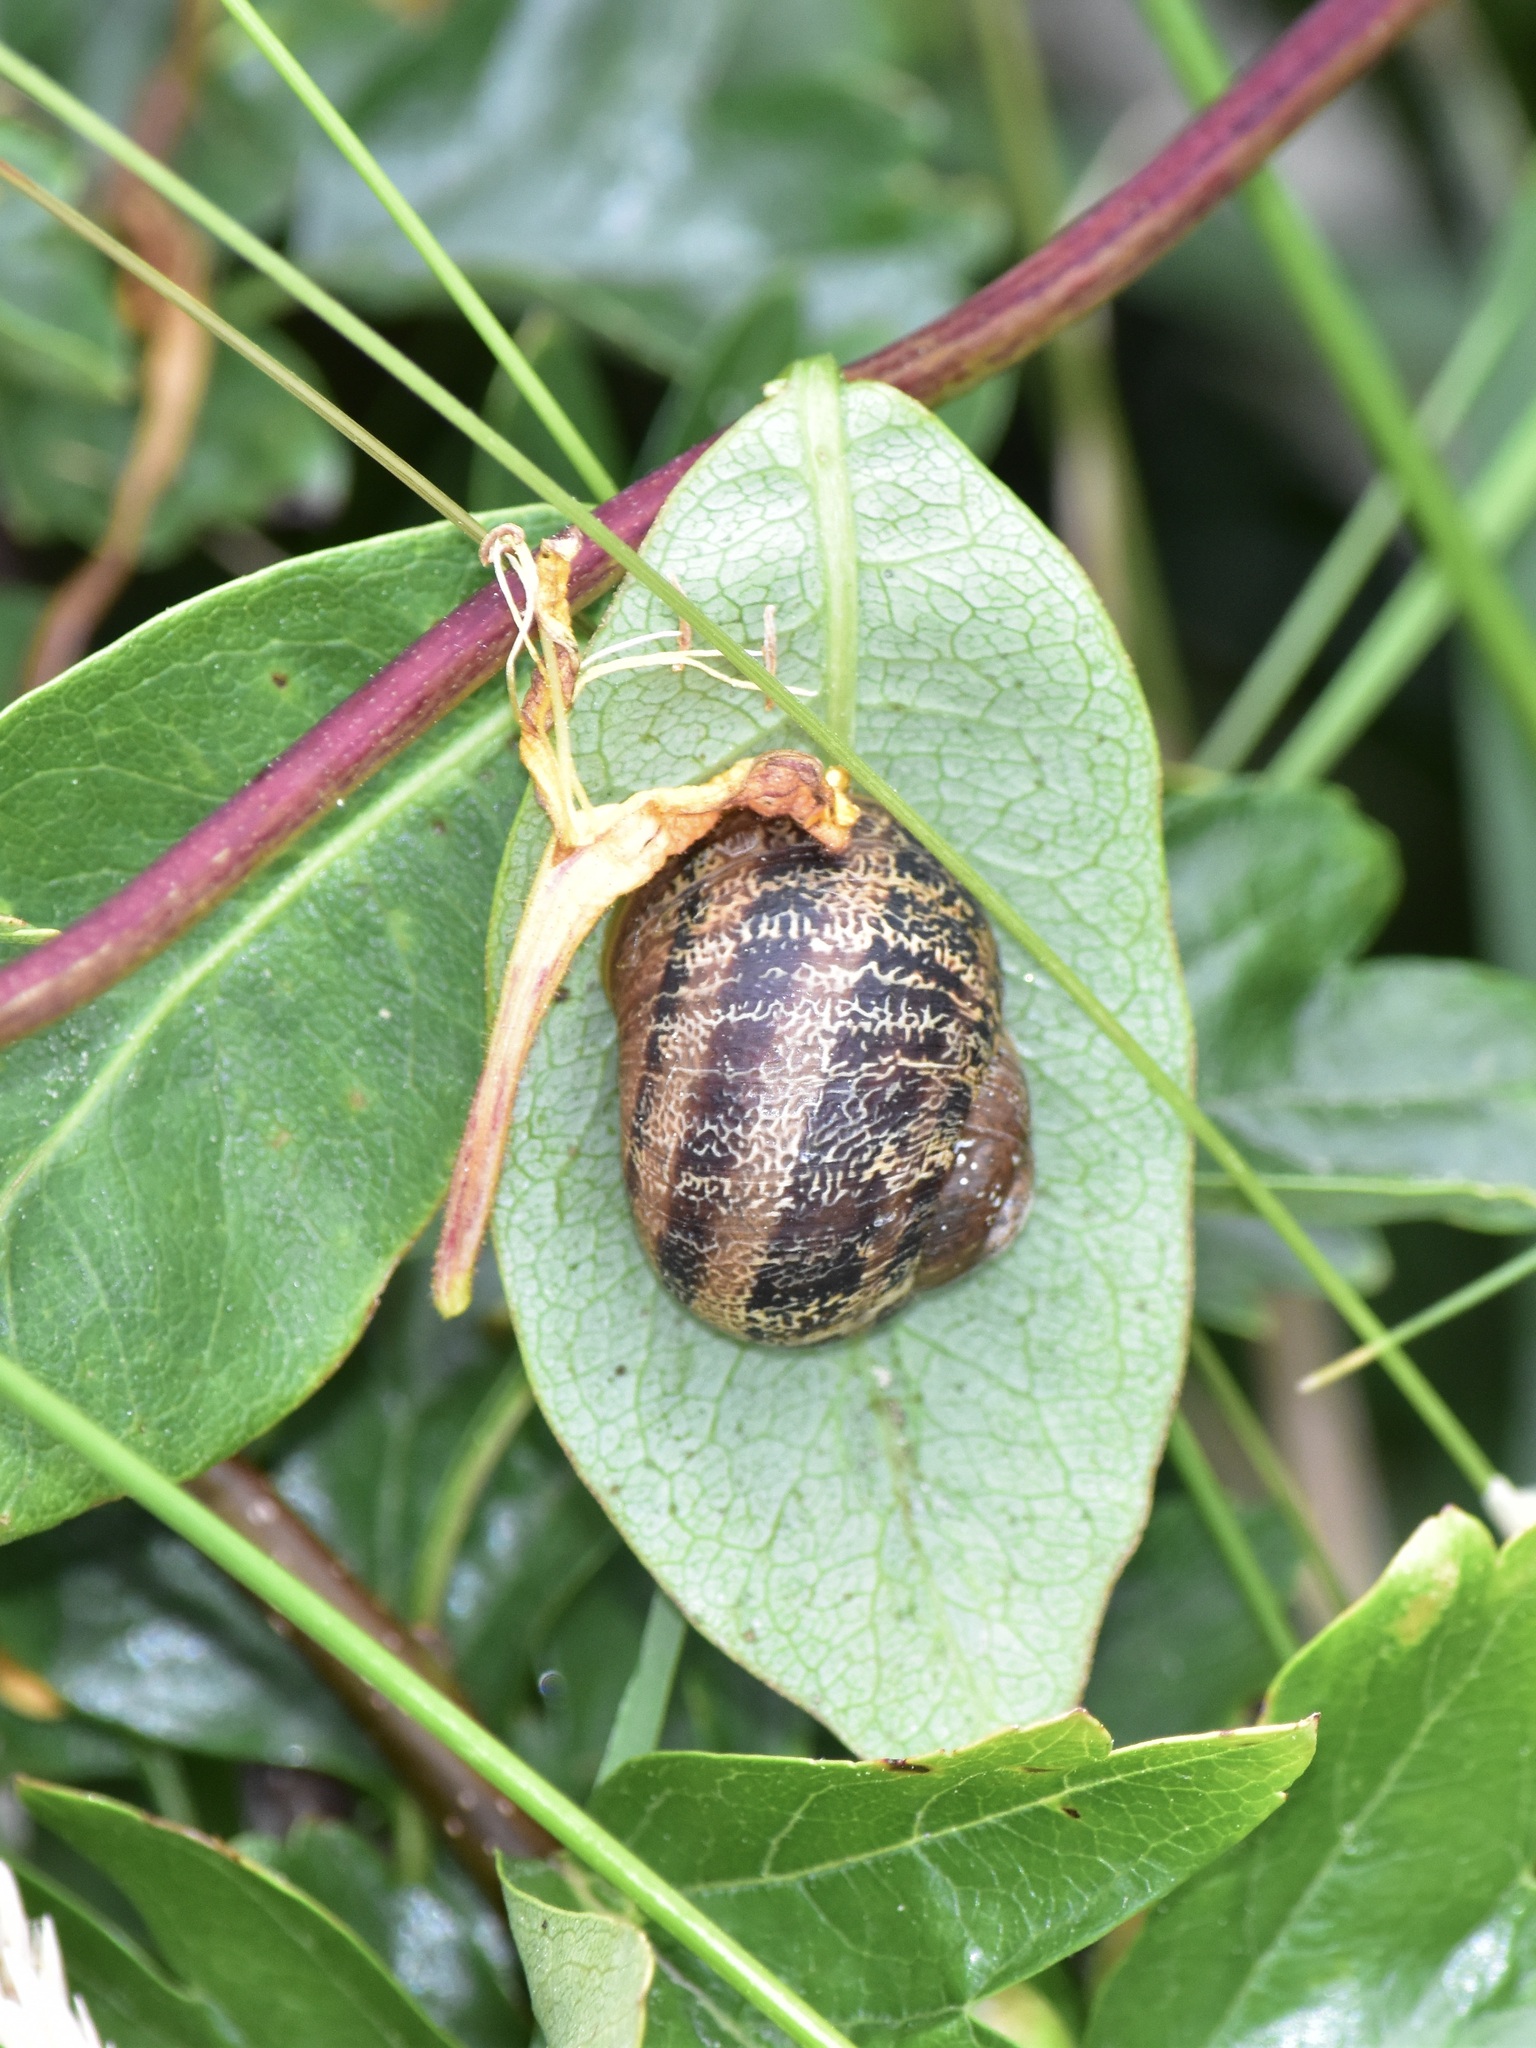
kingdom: Animalia
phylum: Mollusca
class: Gastropoda
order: Stylommatophora
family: Helicidae
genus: Cornu
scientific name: Cornu aspersum
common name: Brown garden snail
